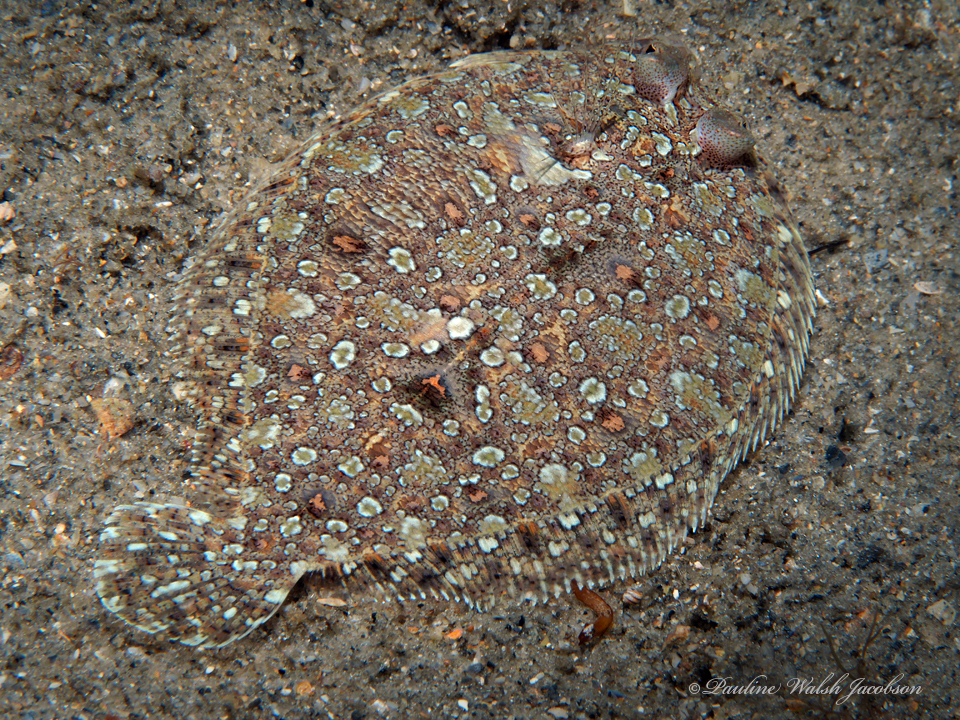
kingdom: Animalia
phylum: Chordata
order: Pleuronectiformes
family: Bothidae
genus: Bothus
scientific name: Bothus ocellatus
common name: Eyed flounder
